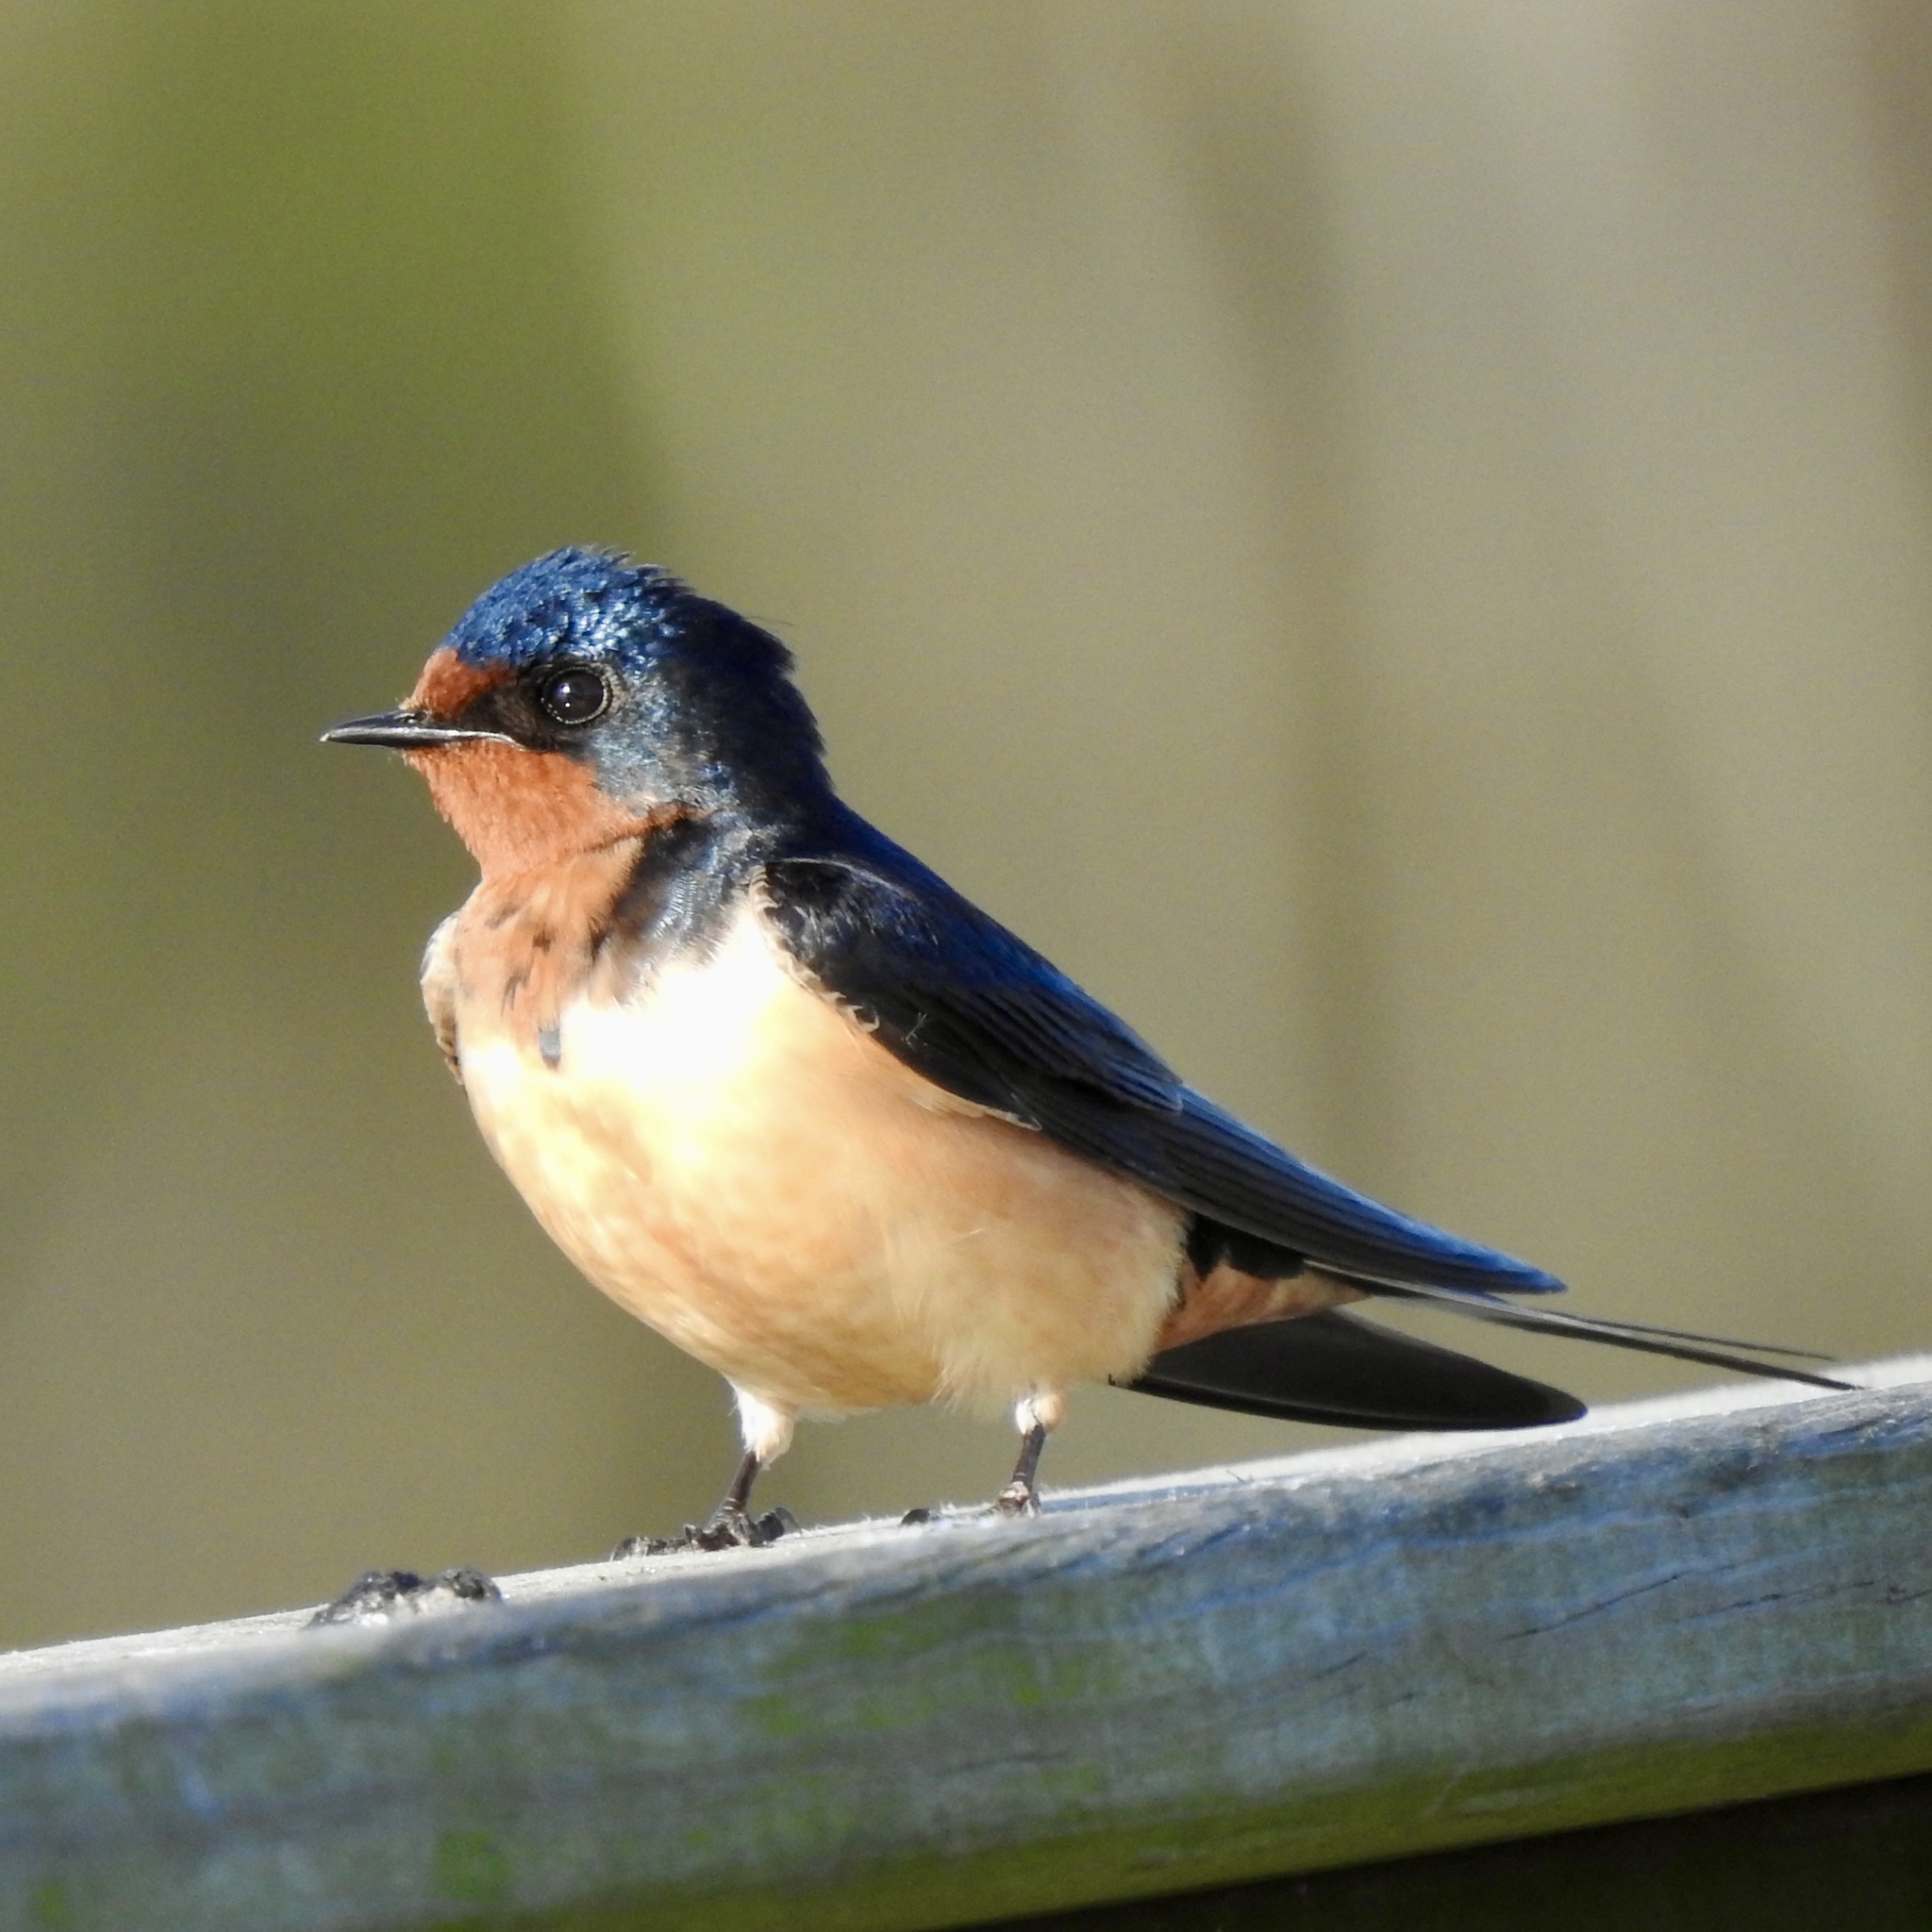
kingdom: Animalia
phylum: Chordata
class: Aves
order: Passeriformes
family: Hirundinidae
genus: Hirundo
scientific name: Hirundo rustica
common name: Barn swallow
